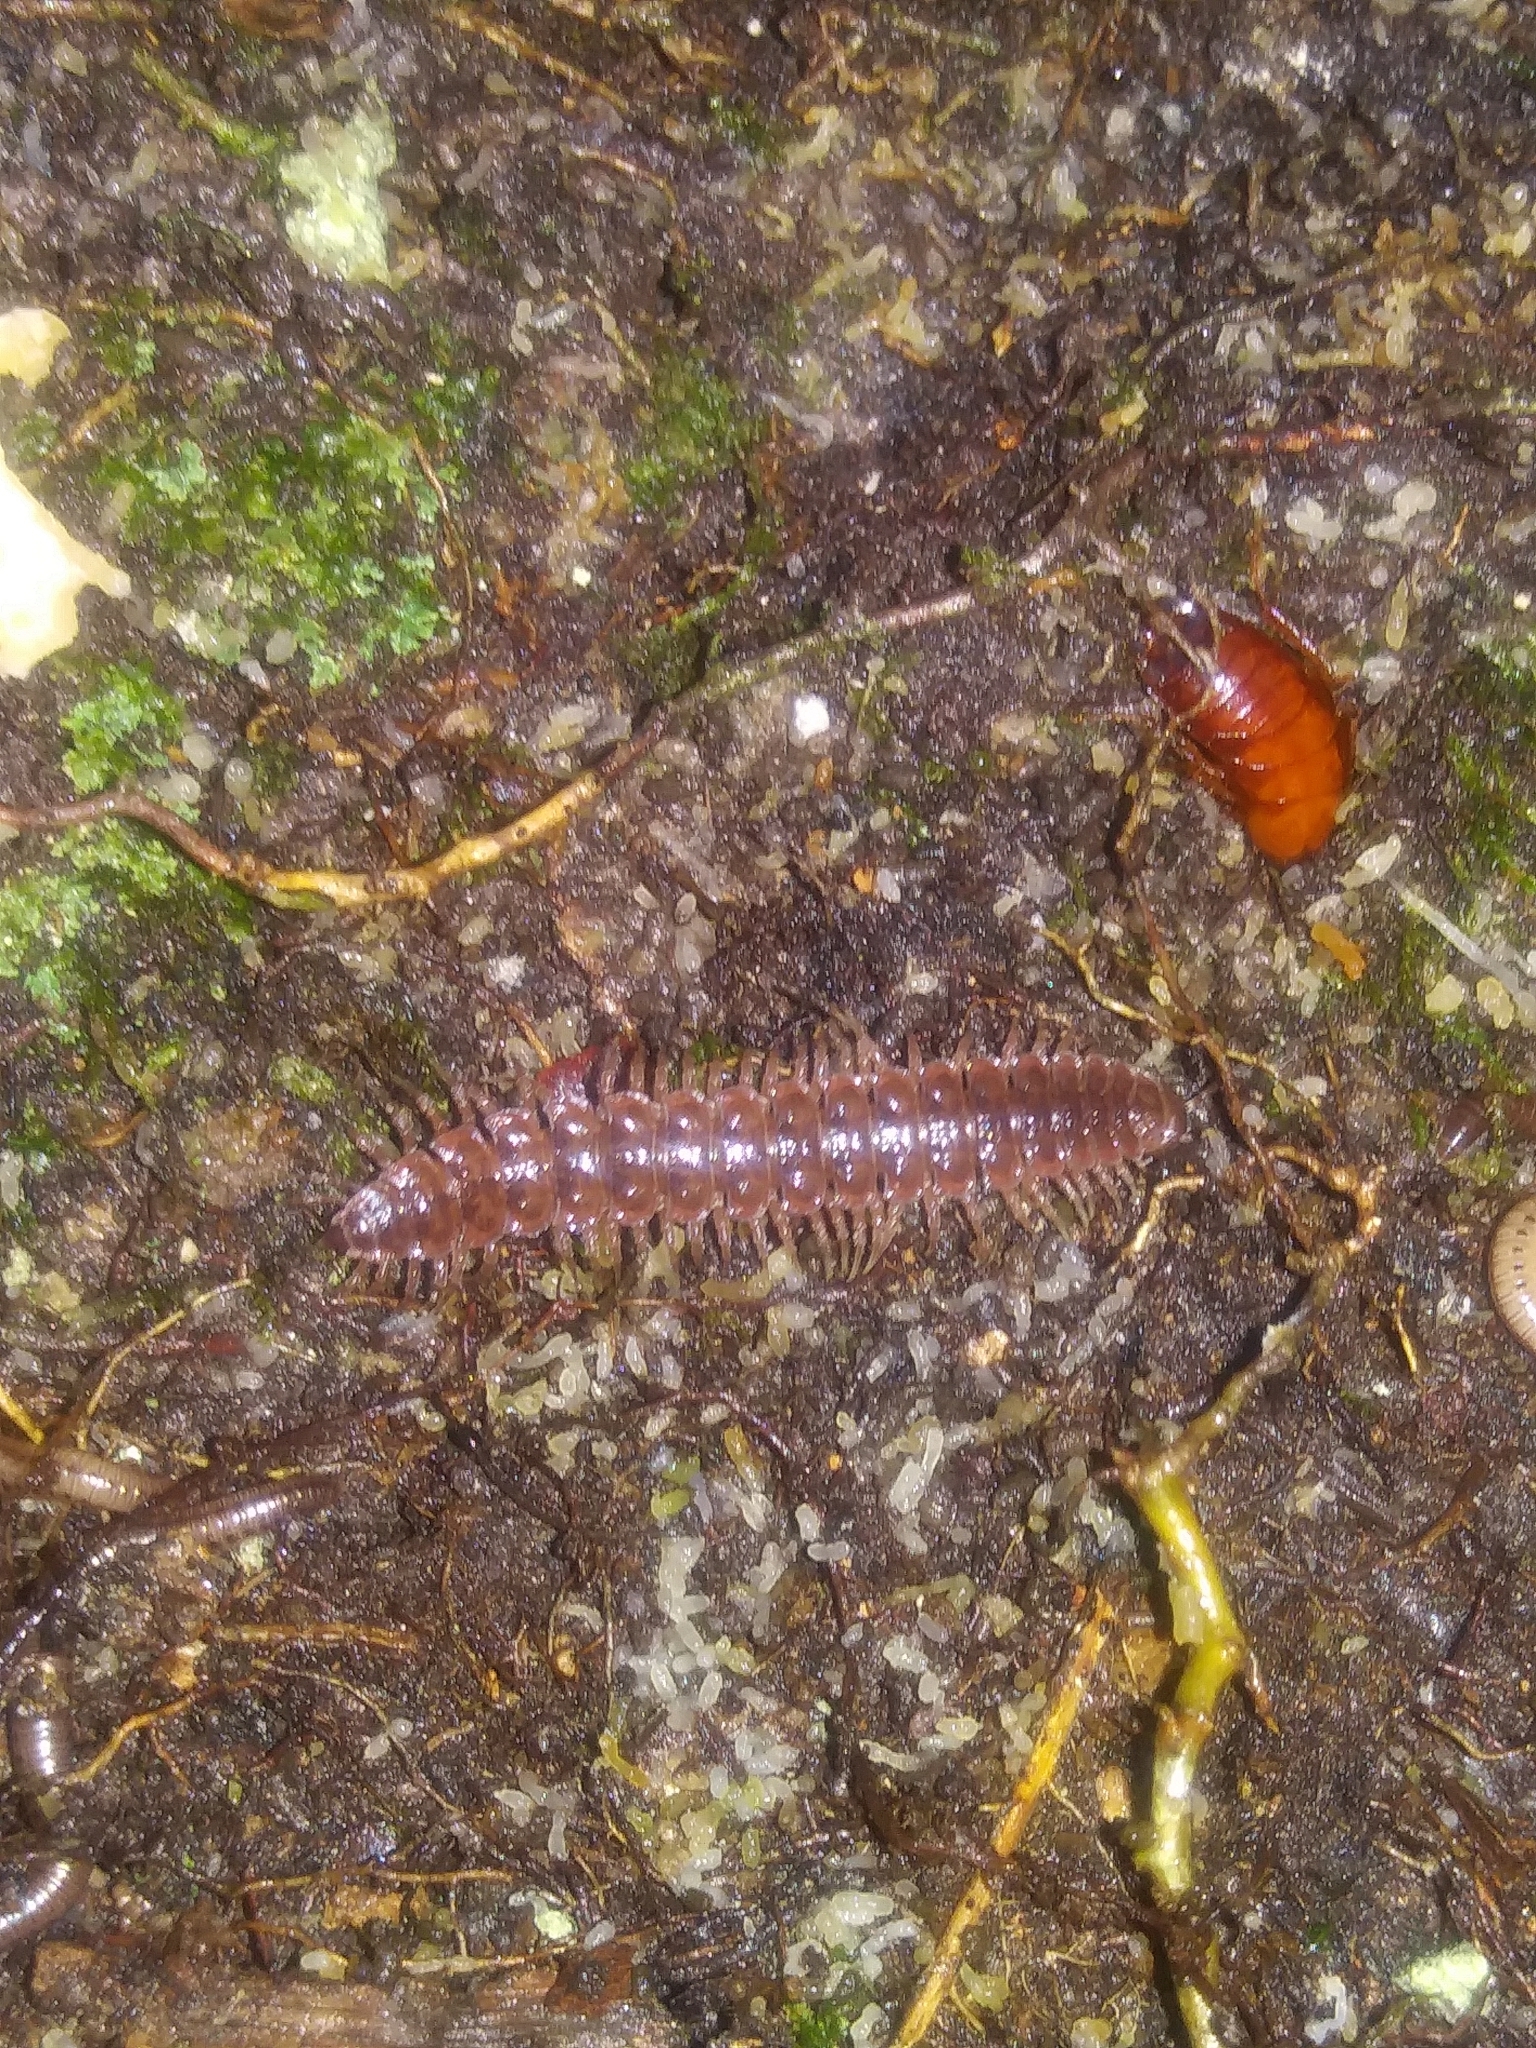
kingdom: Animalia
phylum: Arthropoda
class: Diplopoda
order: Polydesmida
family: Polydesmidae
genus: Pseudopolydesmus
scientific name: Pseudopolydesmus serratus
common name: Common pink flat-back millipede
